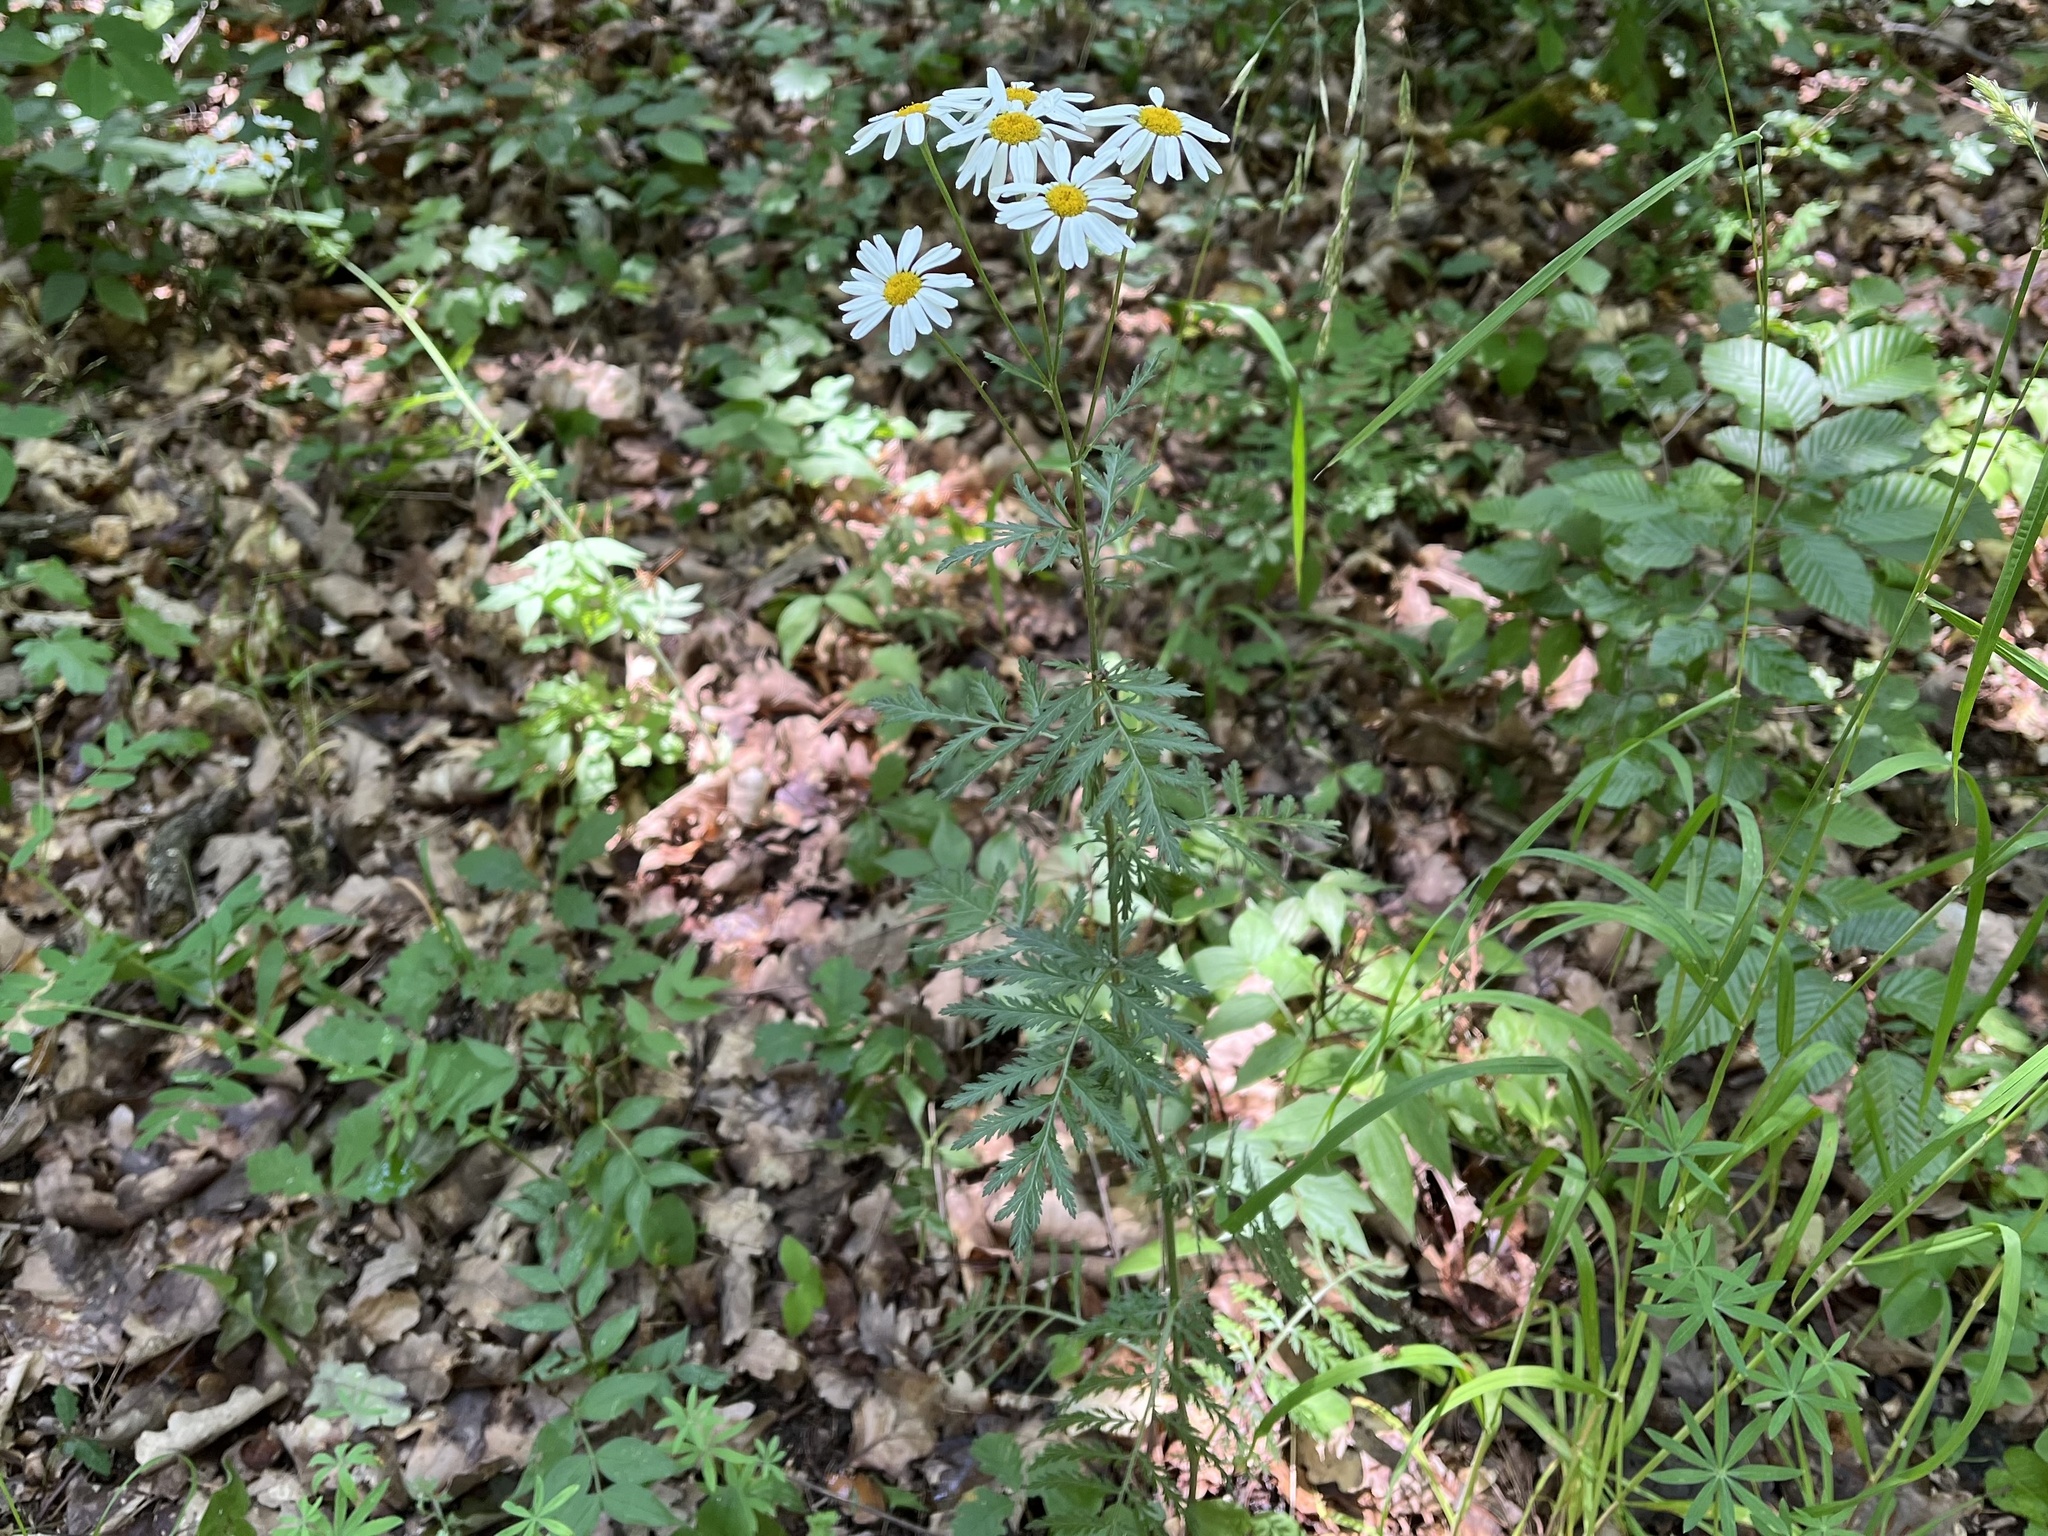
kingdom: Plantae
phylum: Tracheophyta
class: Magnoliopsida
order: Asterales
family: Asteraceae
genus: Tanacetum
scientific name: Tanacetum corymbosum
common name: Scentless feverfew
